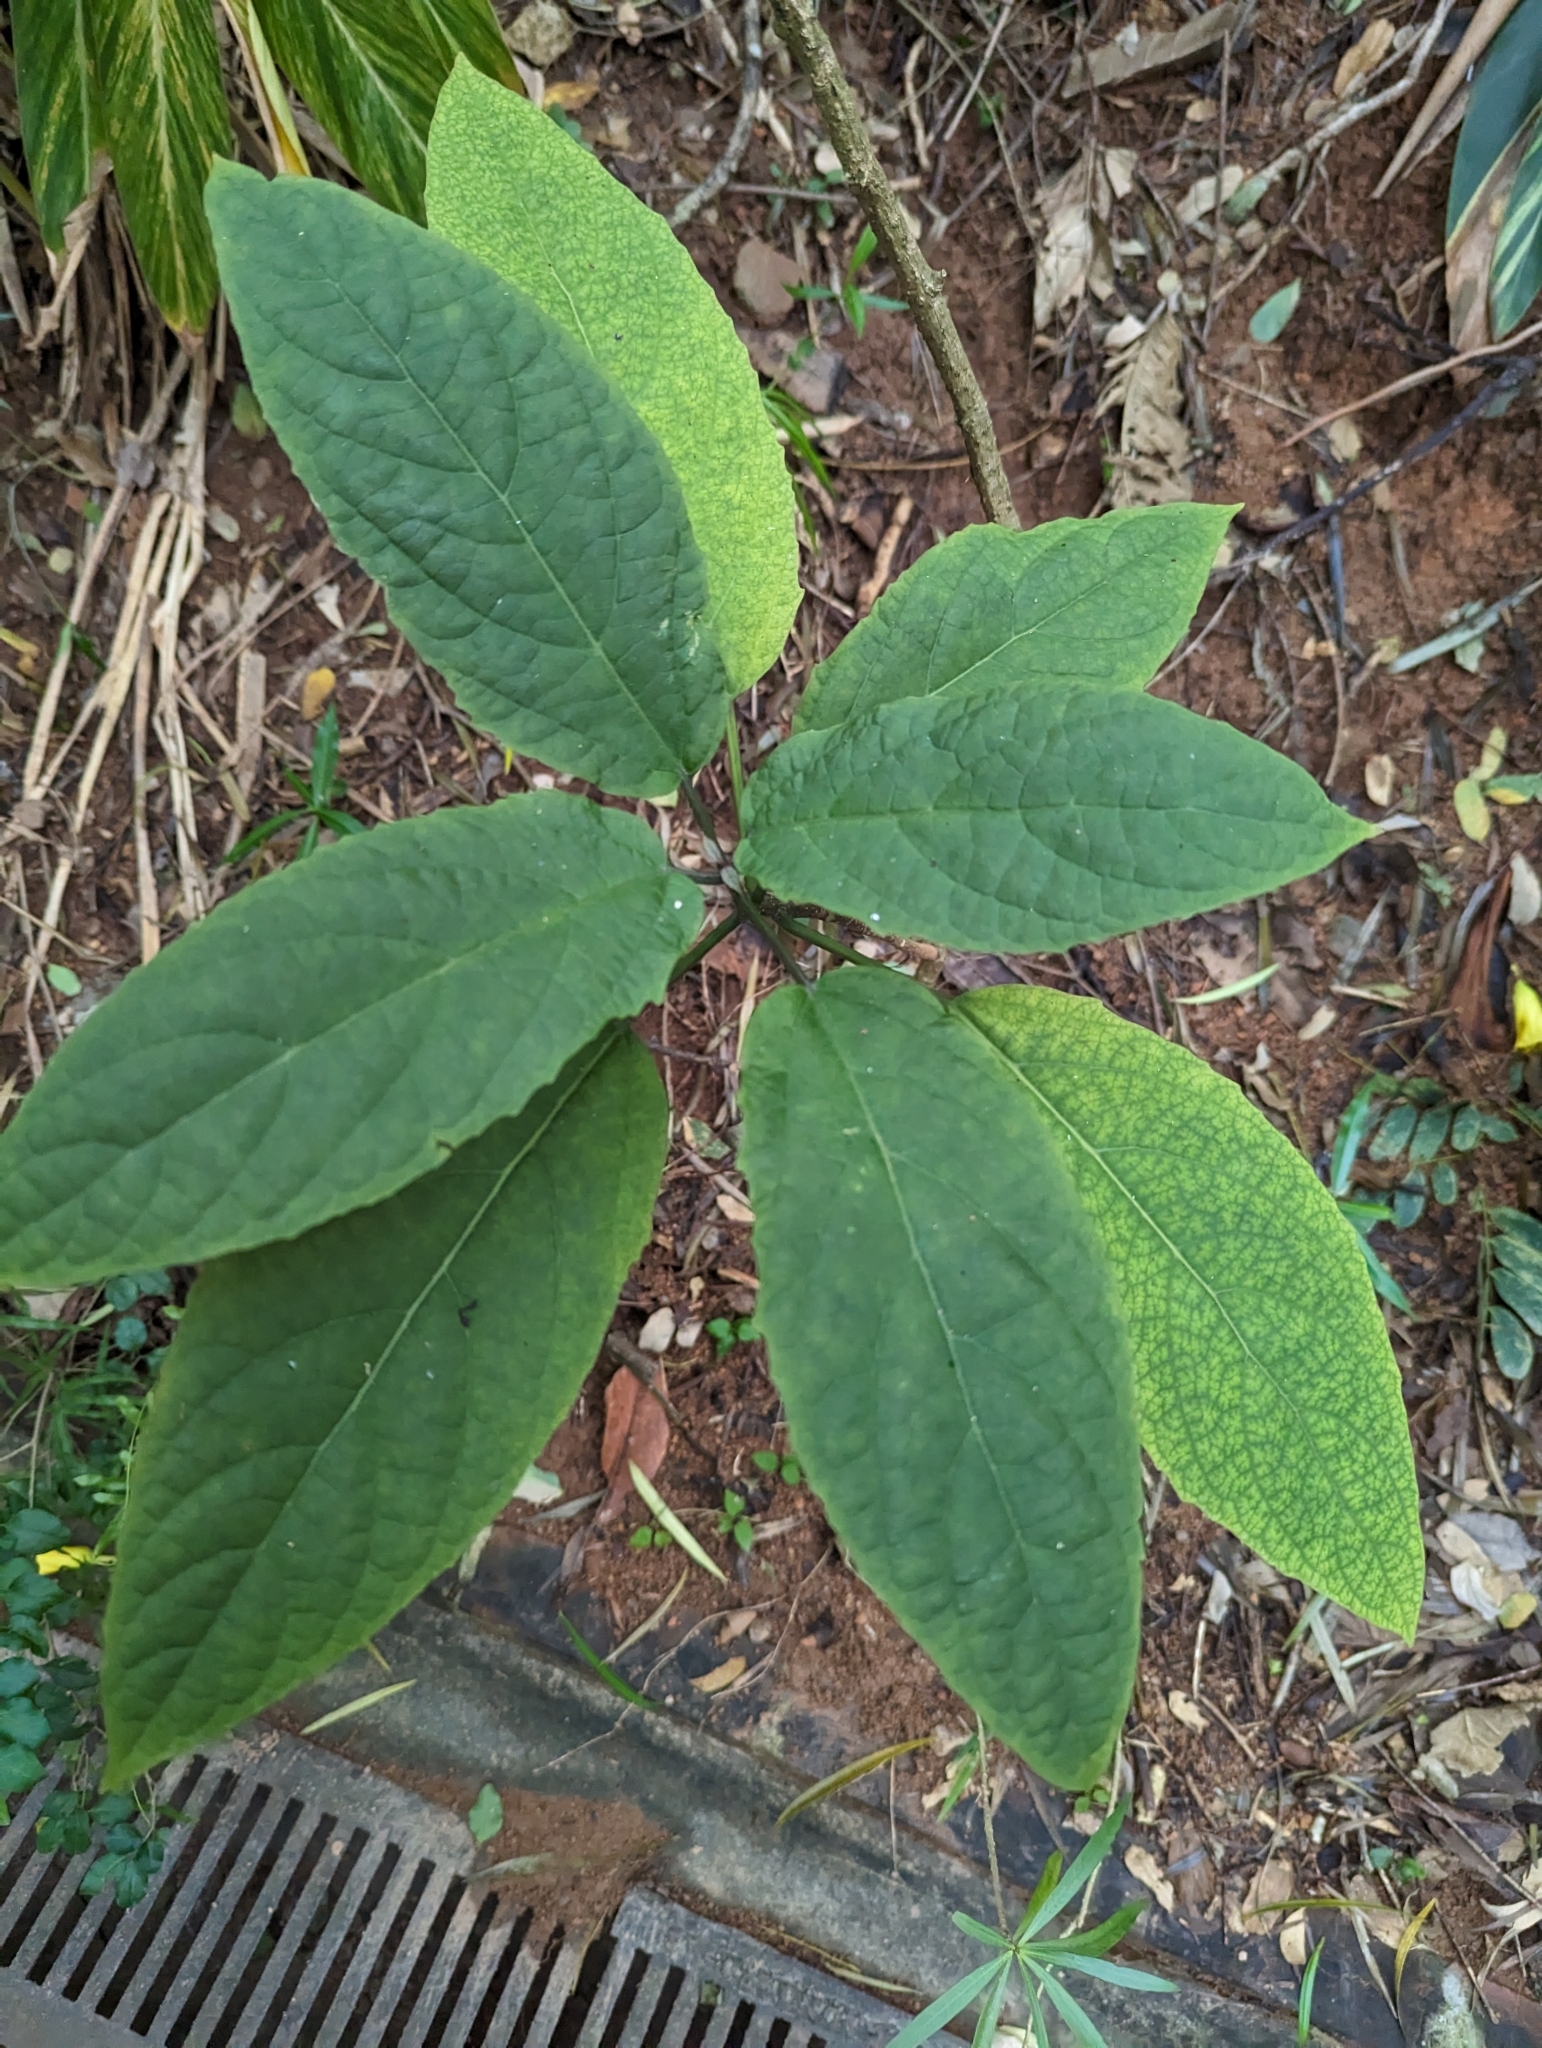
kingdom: Plantae
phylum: Tracheophyta
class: Magnoliopsida
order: Lamiales
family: Lamiaceae
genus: Clerodendrum
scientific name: Clerodendrum cyrtophyllum
